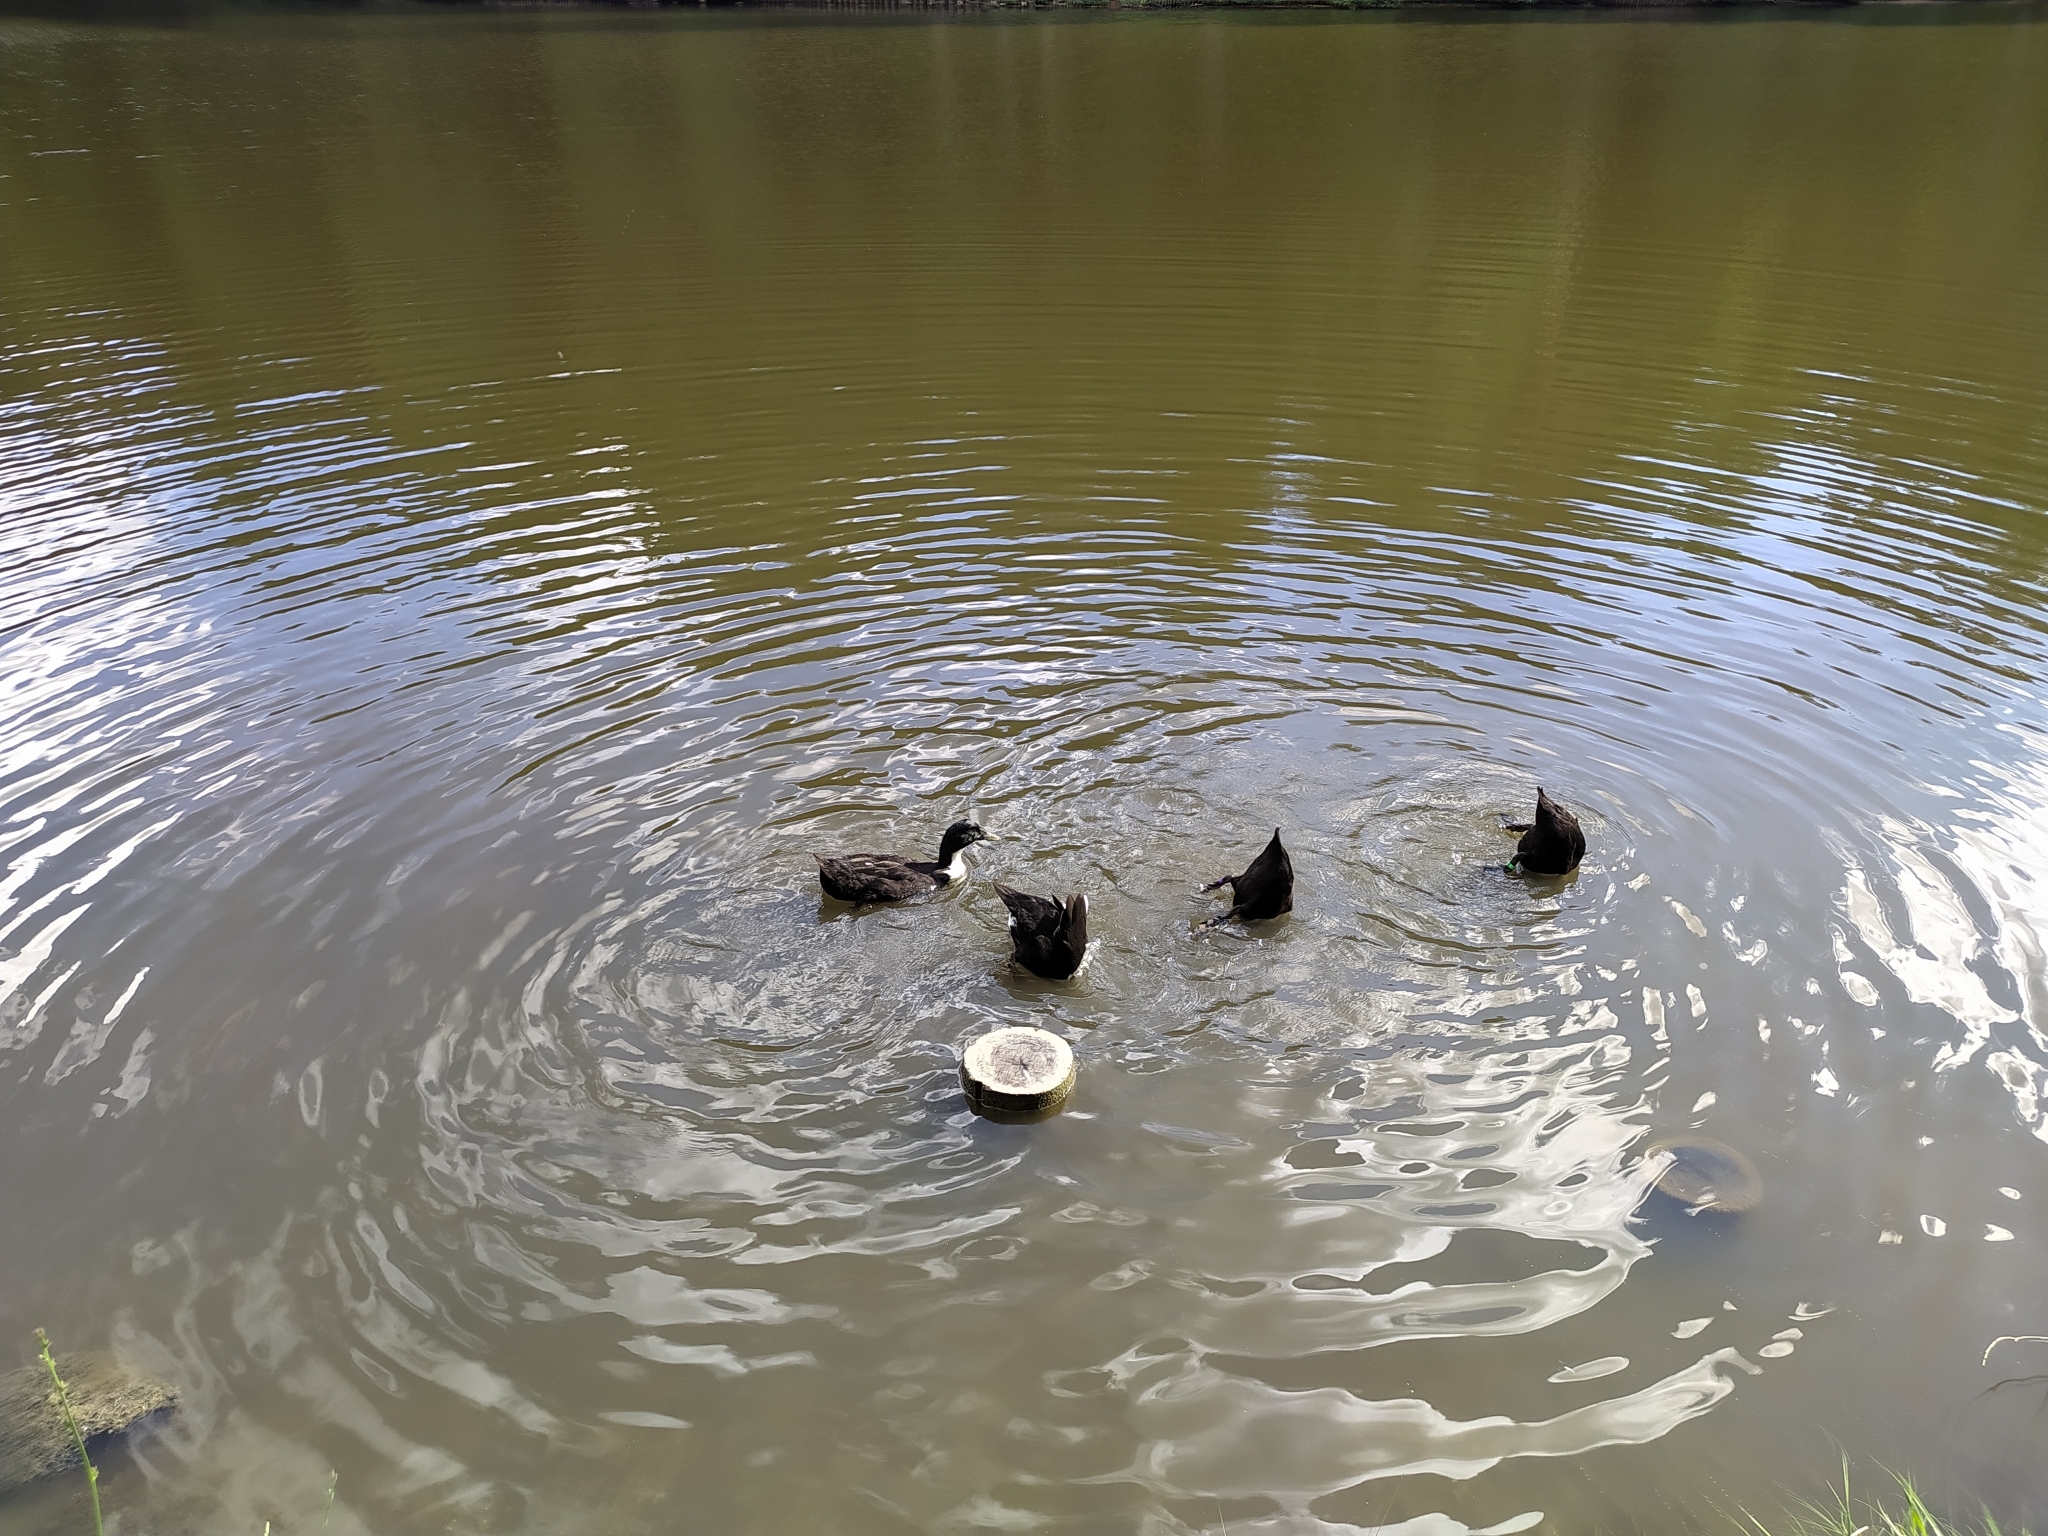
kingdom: Animalia
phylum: Chordata
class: Aves
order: Anseriformes
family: Anatidae
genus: Anas
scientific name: Anas platyrhynchos
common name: Mallard
